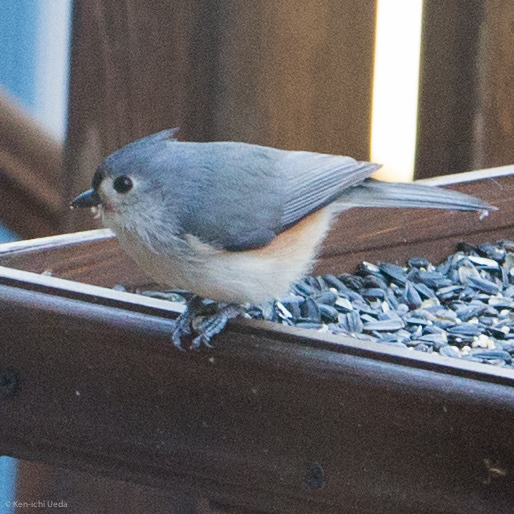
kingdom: Animalia
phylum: Chordata
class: Aves
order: Passeriformes
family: Paridae
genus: Baeolophus
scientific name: Baeolophus bicolor
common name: Tufted titmouse
